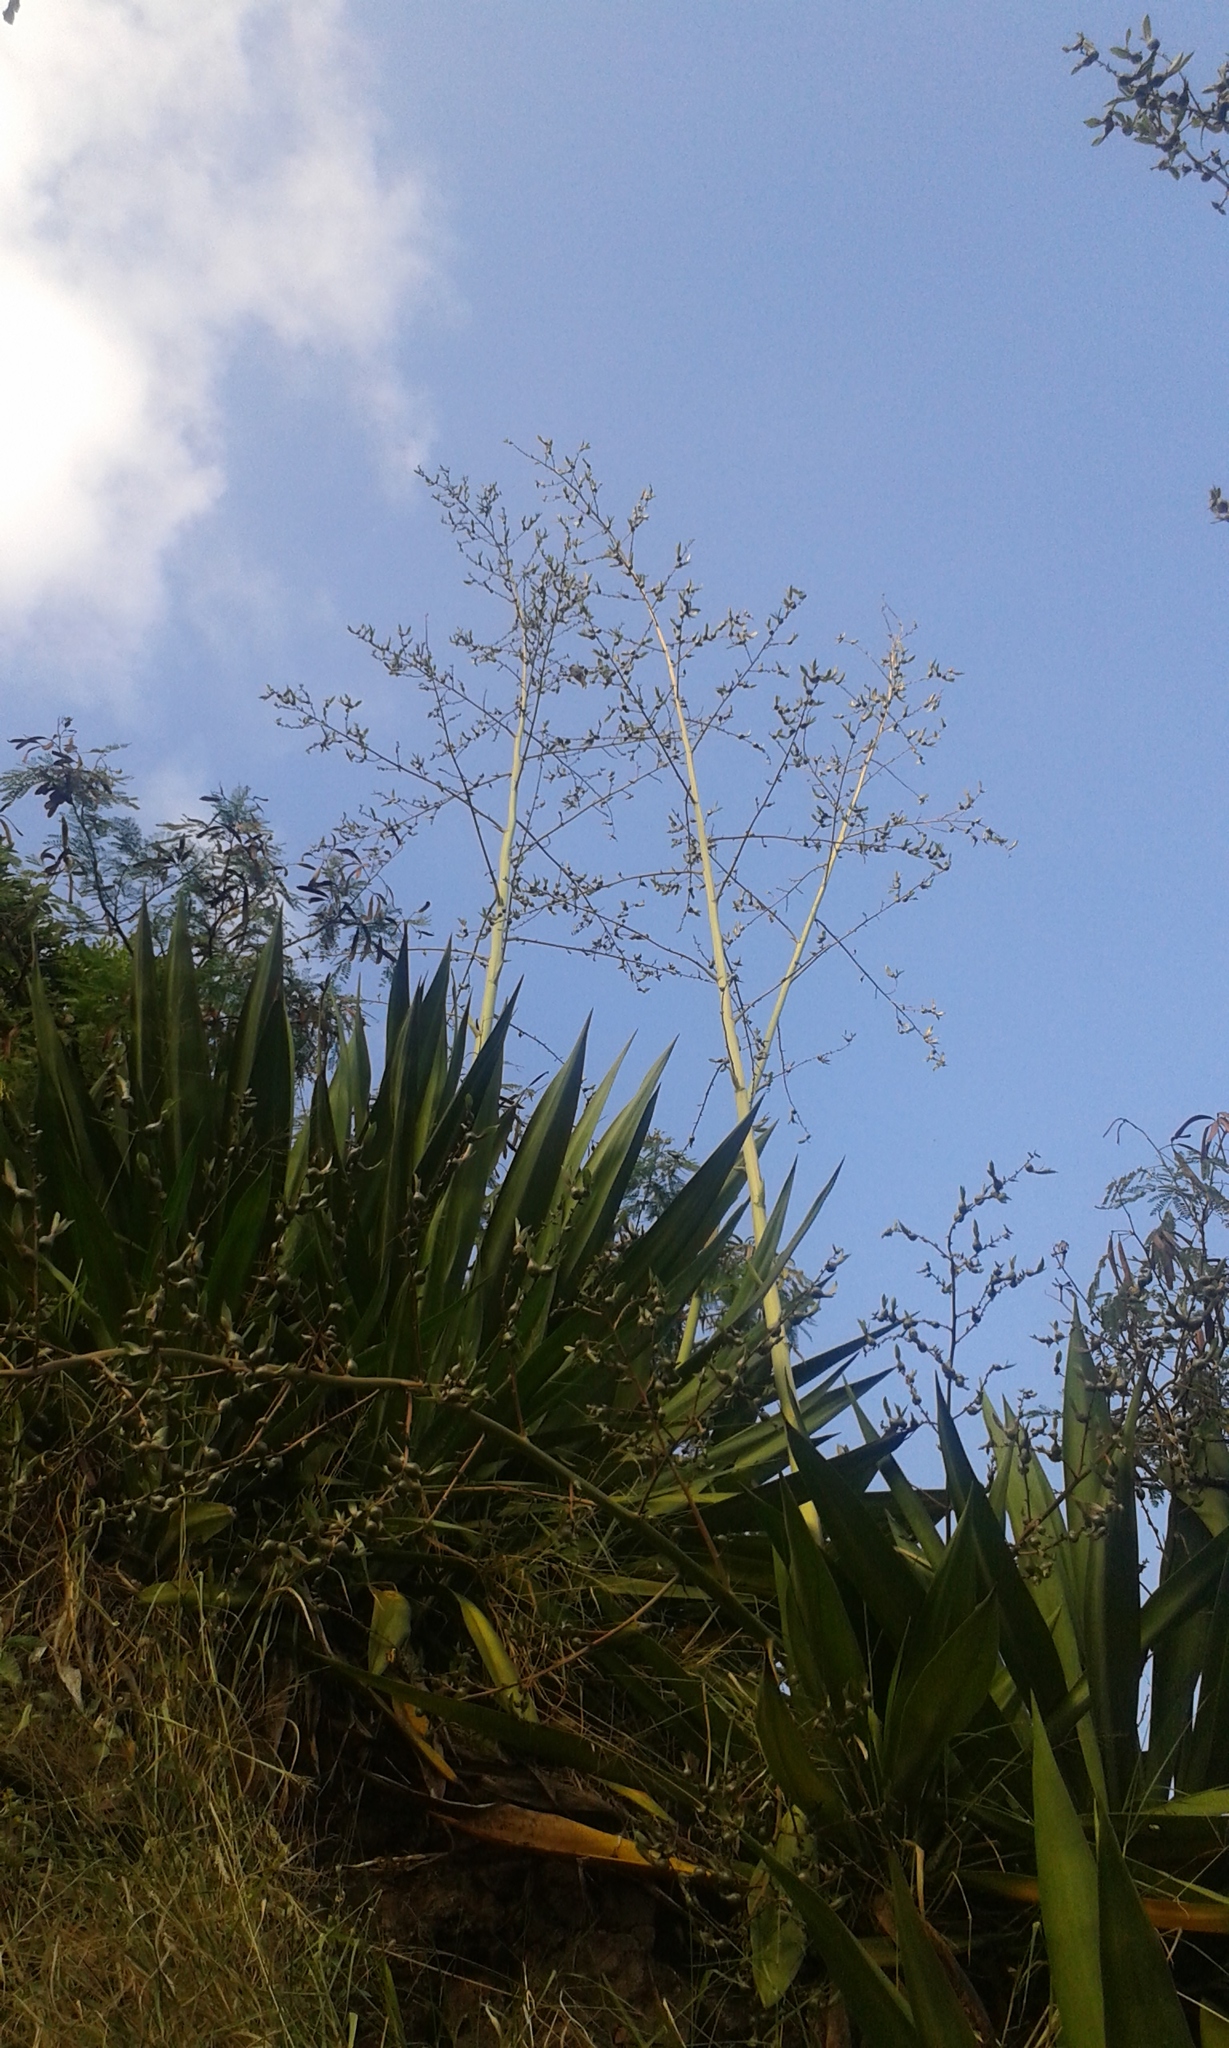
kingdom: Plantae
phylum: Tracheophyta
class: Liliopsida
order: Asparagales
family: Asparagaceae
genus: Furcraea
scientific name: Furcraea foetida
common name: Mauritius hemp
